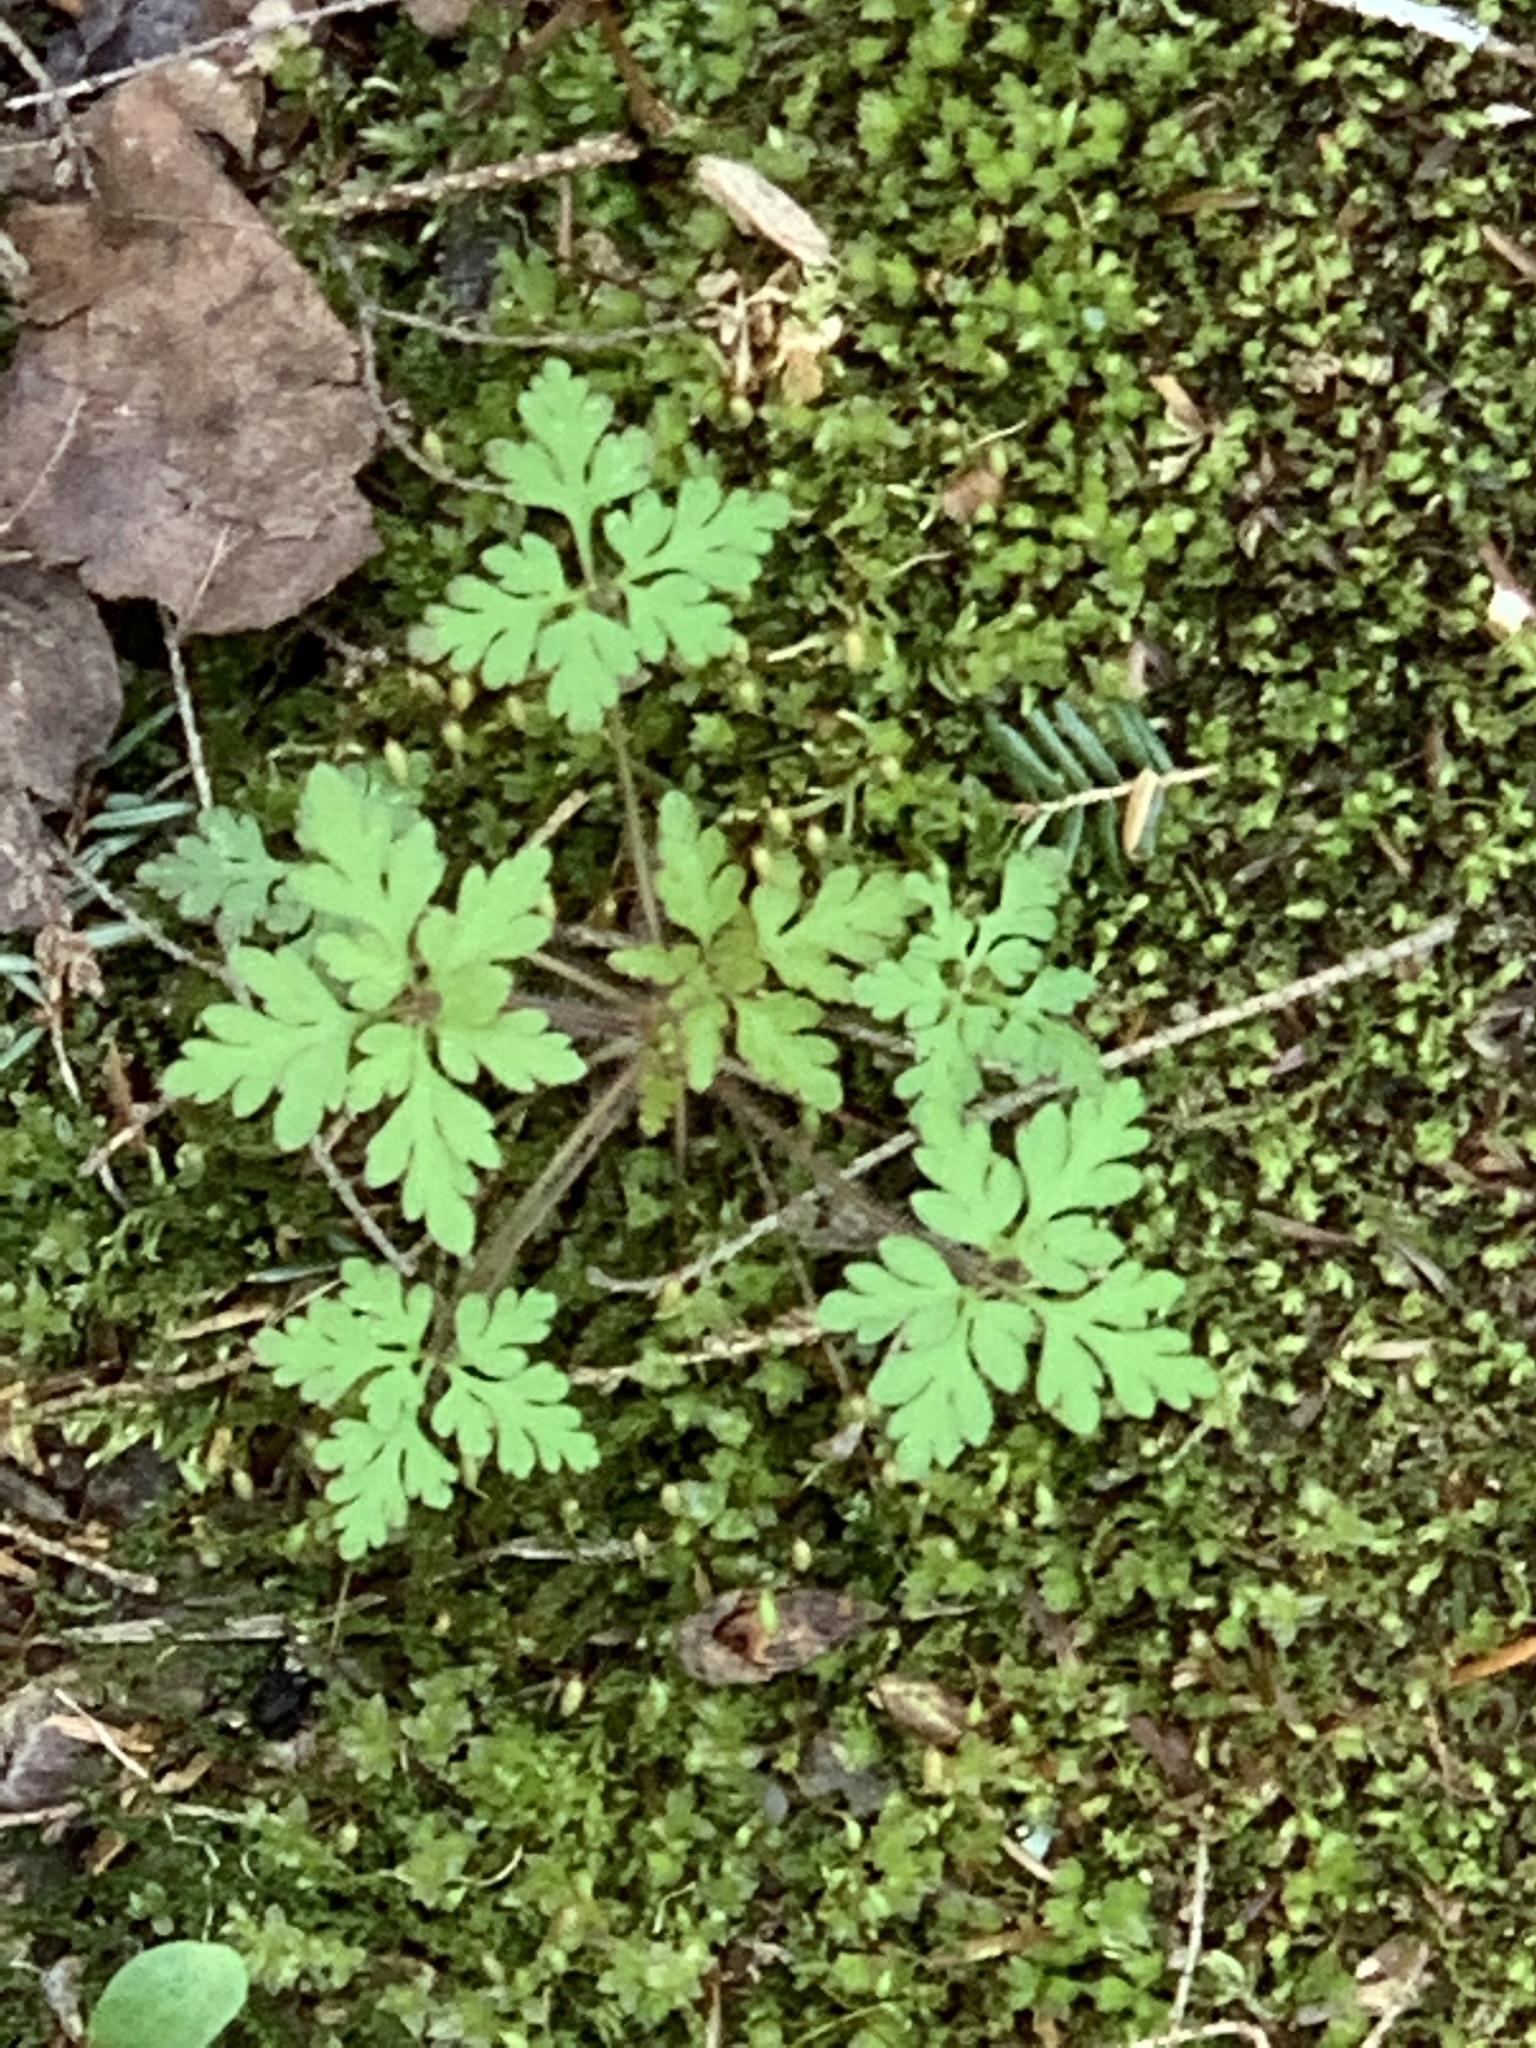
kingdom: Plantae
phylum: Tracheophyta
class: Magnoliopsida
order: Geraniales
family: Geraniaceae
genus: Geranium
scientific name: Geranium robertianum
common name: Herb-robert
